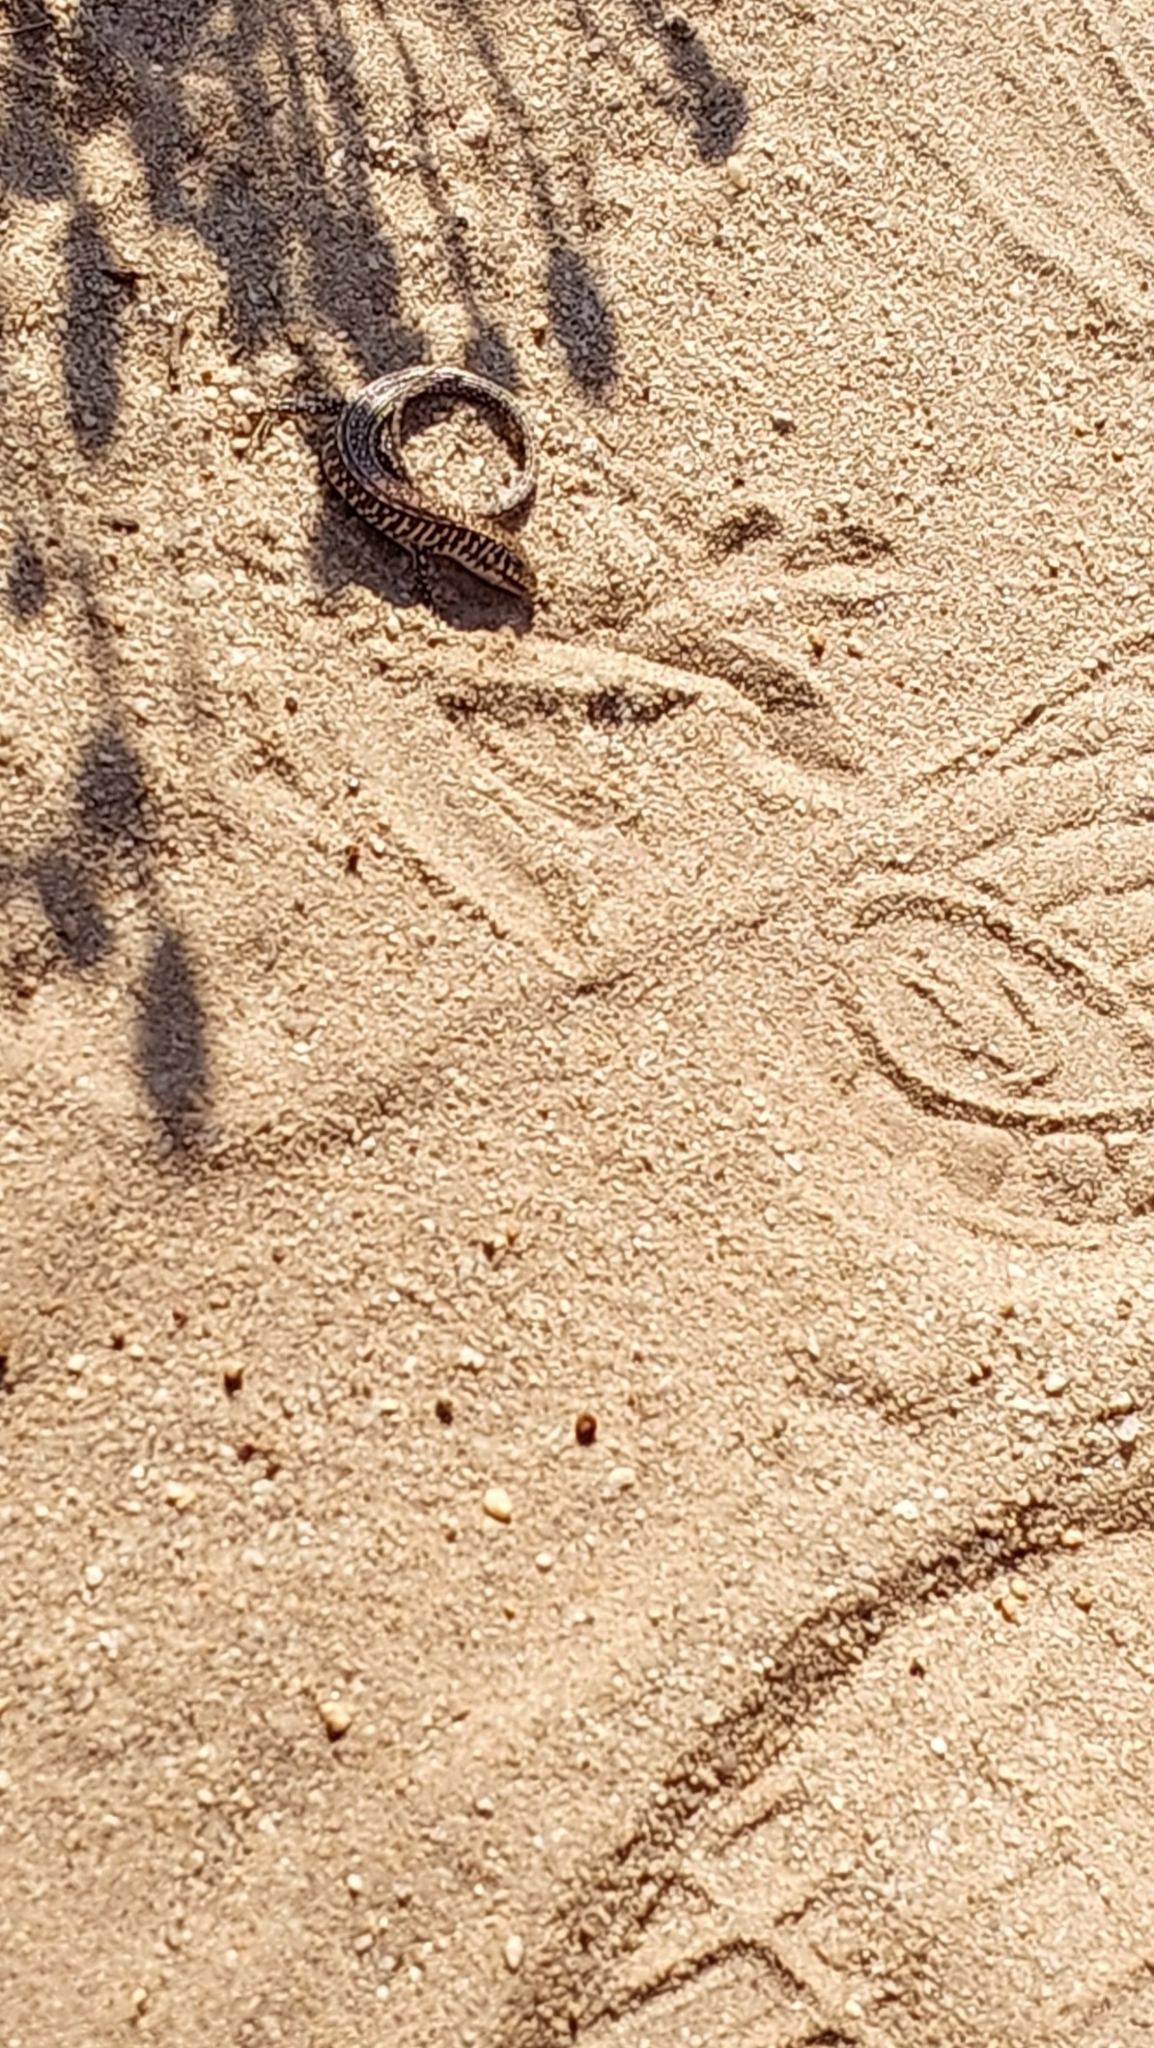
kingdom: Animalia
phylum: Chordata
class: Squamata
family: Gerrhosauridae
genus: Gerrhosaurus
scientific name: Gerrhosaurus flavigularis
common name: Yellow-throated plated lizard
